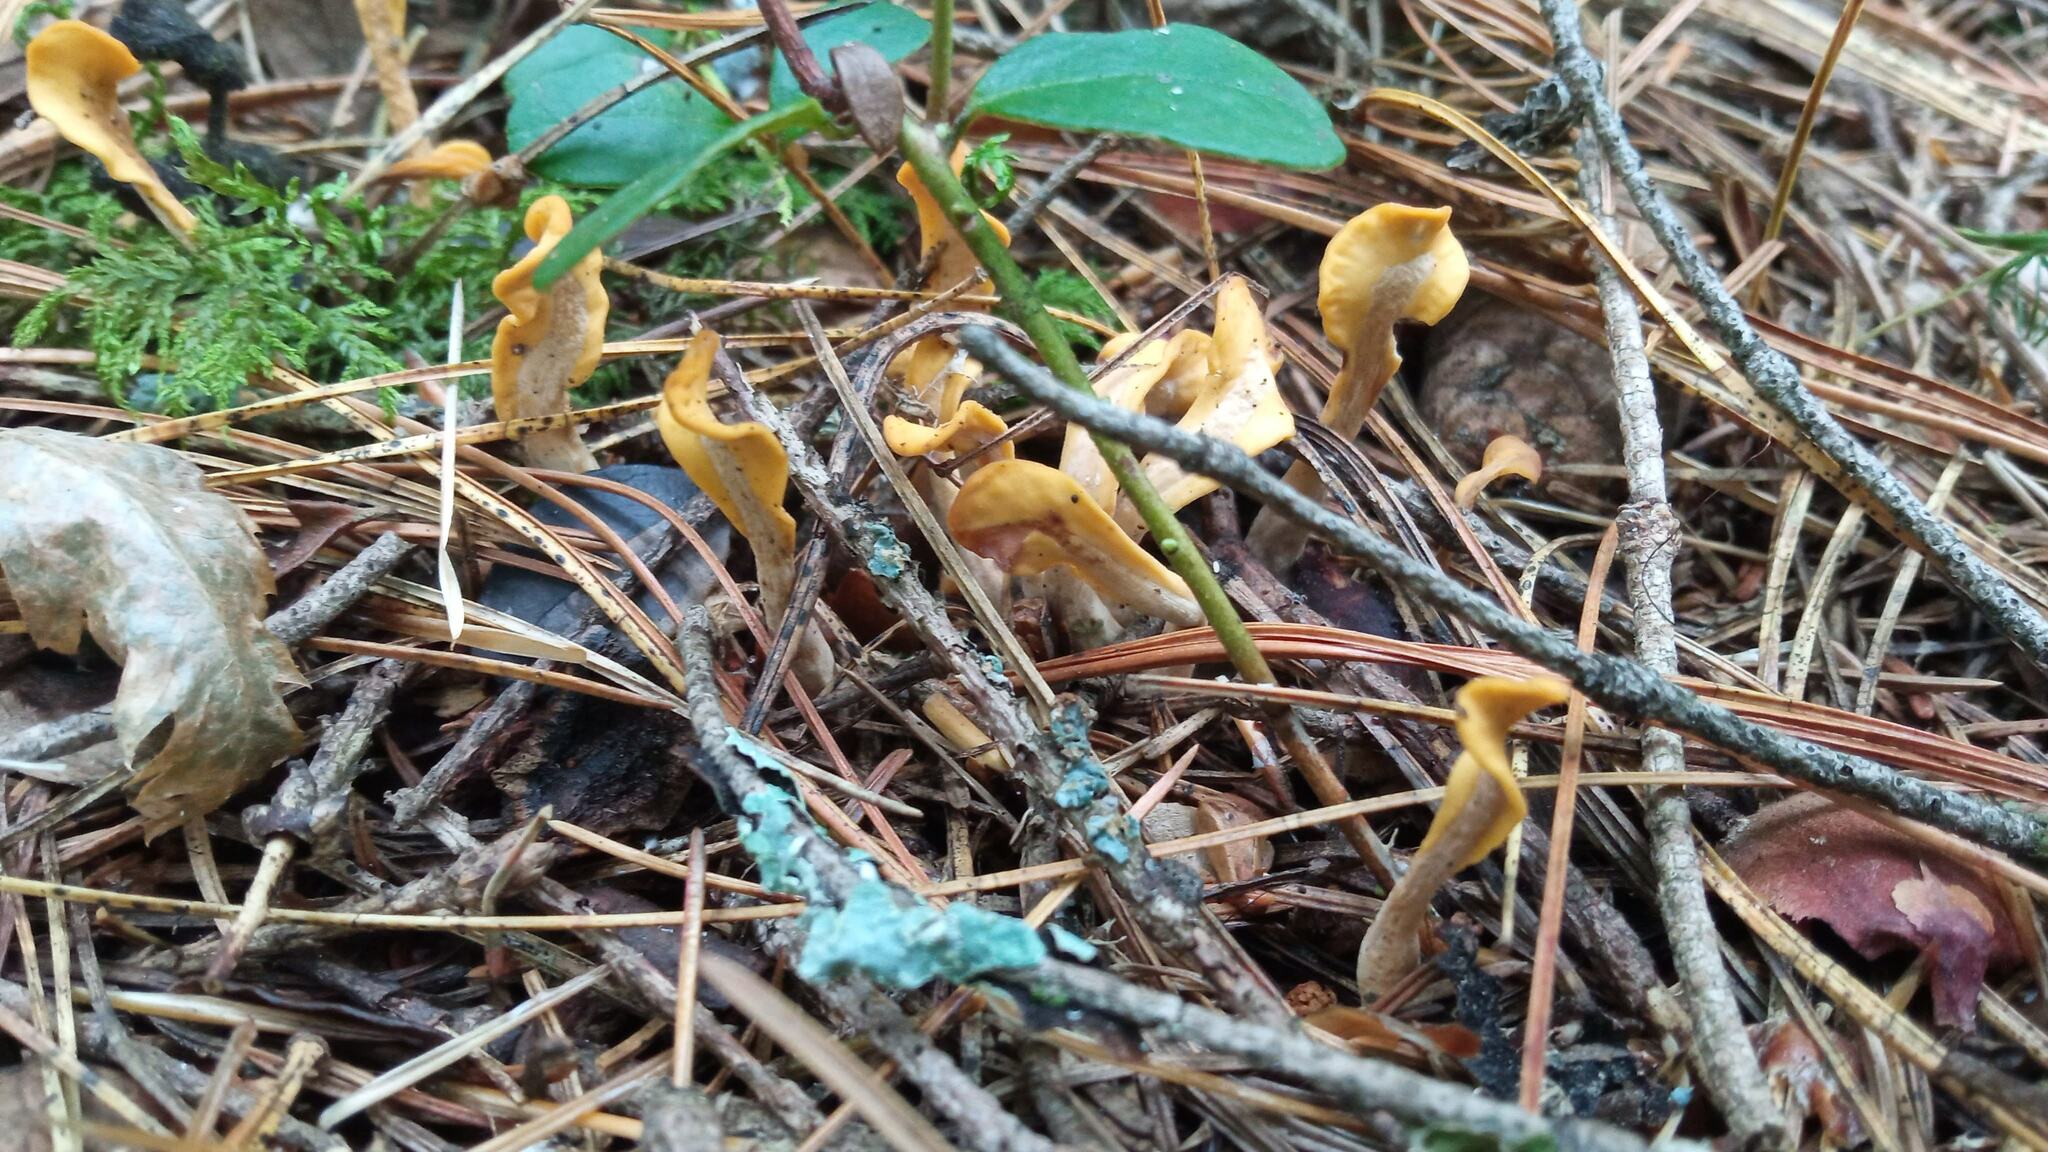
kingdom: Fungi
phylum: Ascomycota
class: Leotiomycetes
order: Rhytismatales
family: Cudoniaceae
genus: Spathularia
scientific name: Spathularia rufa
